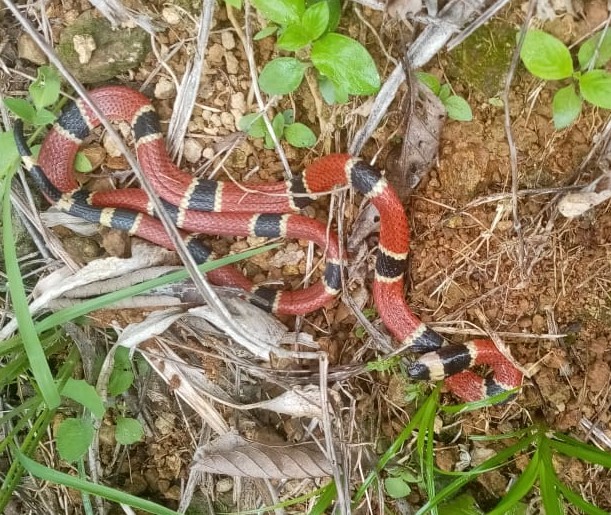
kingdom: Animalia
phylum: Chordata
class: Squamata
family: Elapidae
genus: Micrurus
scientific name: Micrurus nigrocinctus
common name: Babaspul [babaspul]
